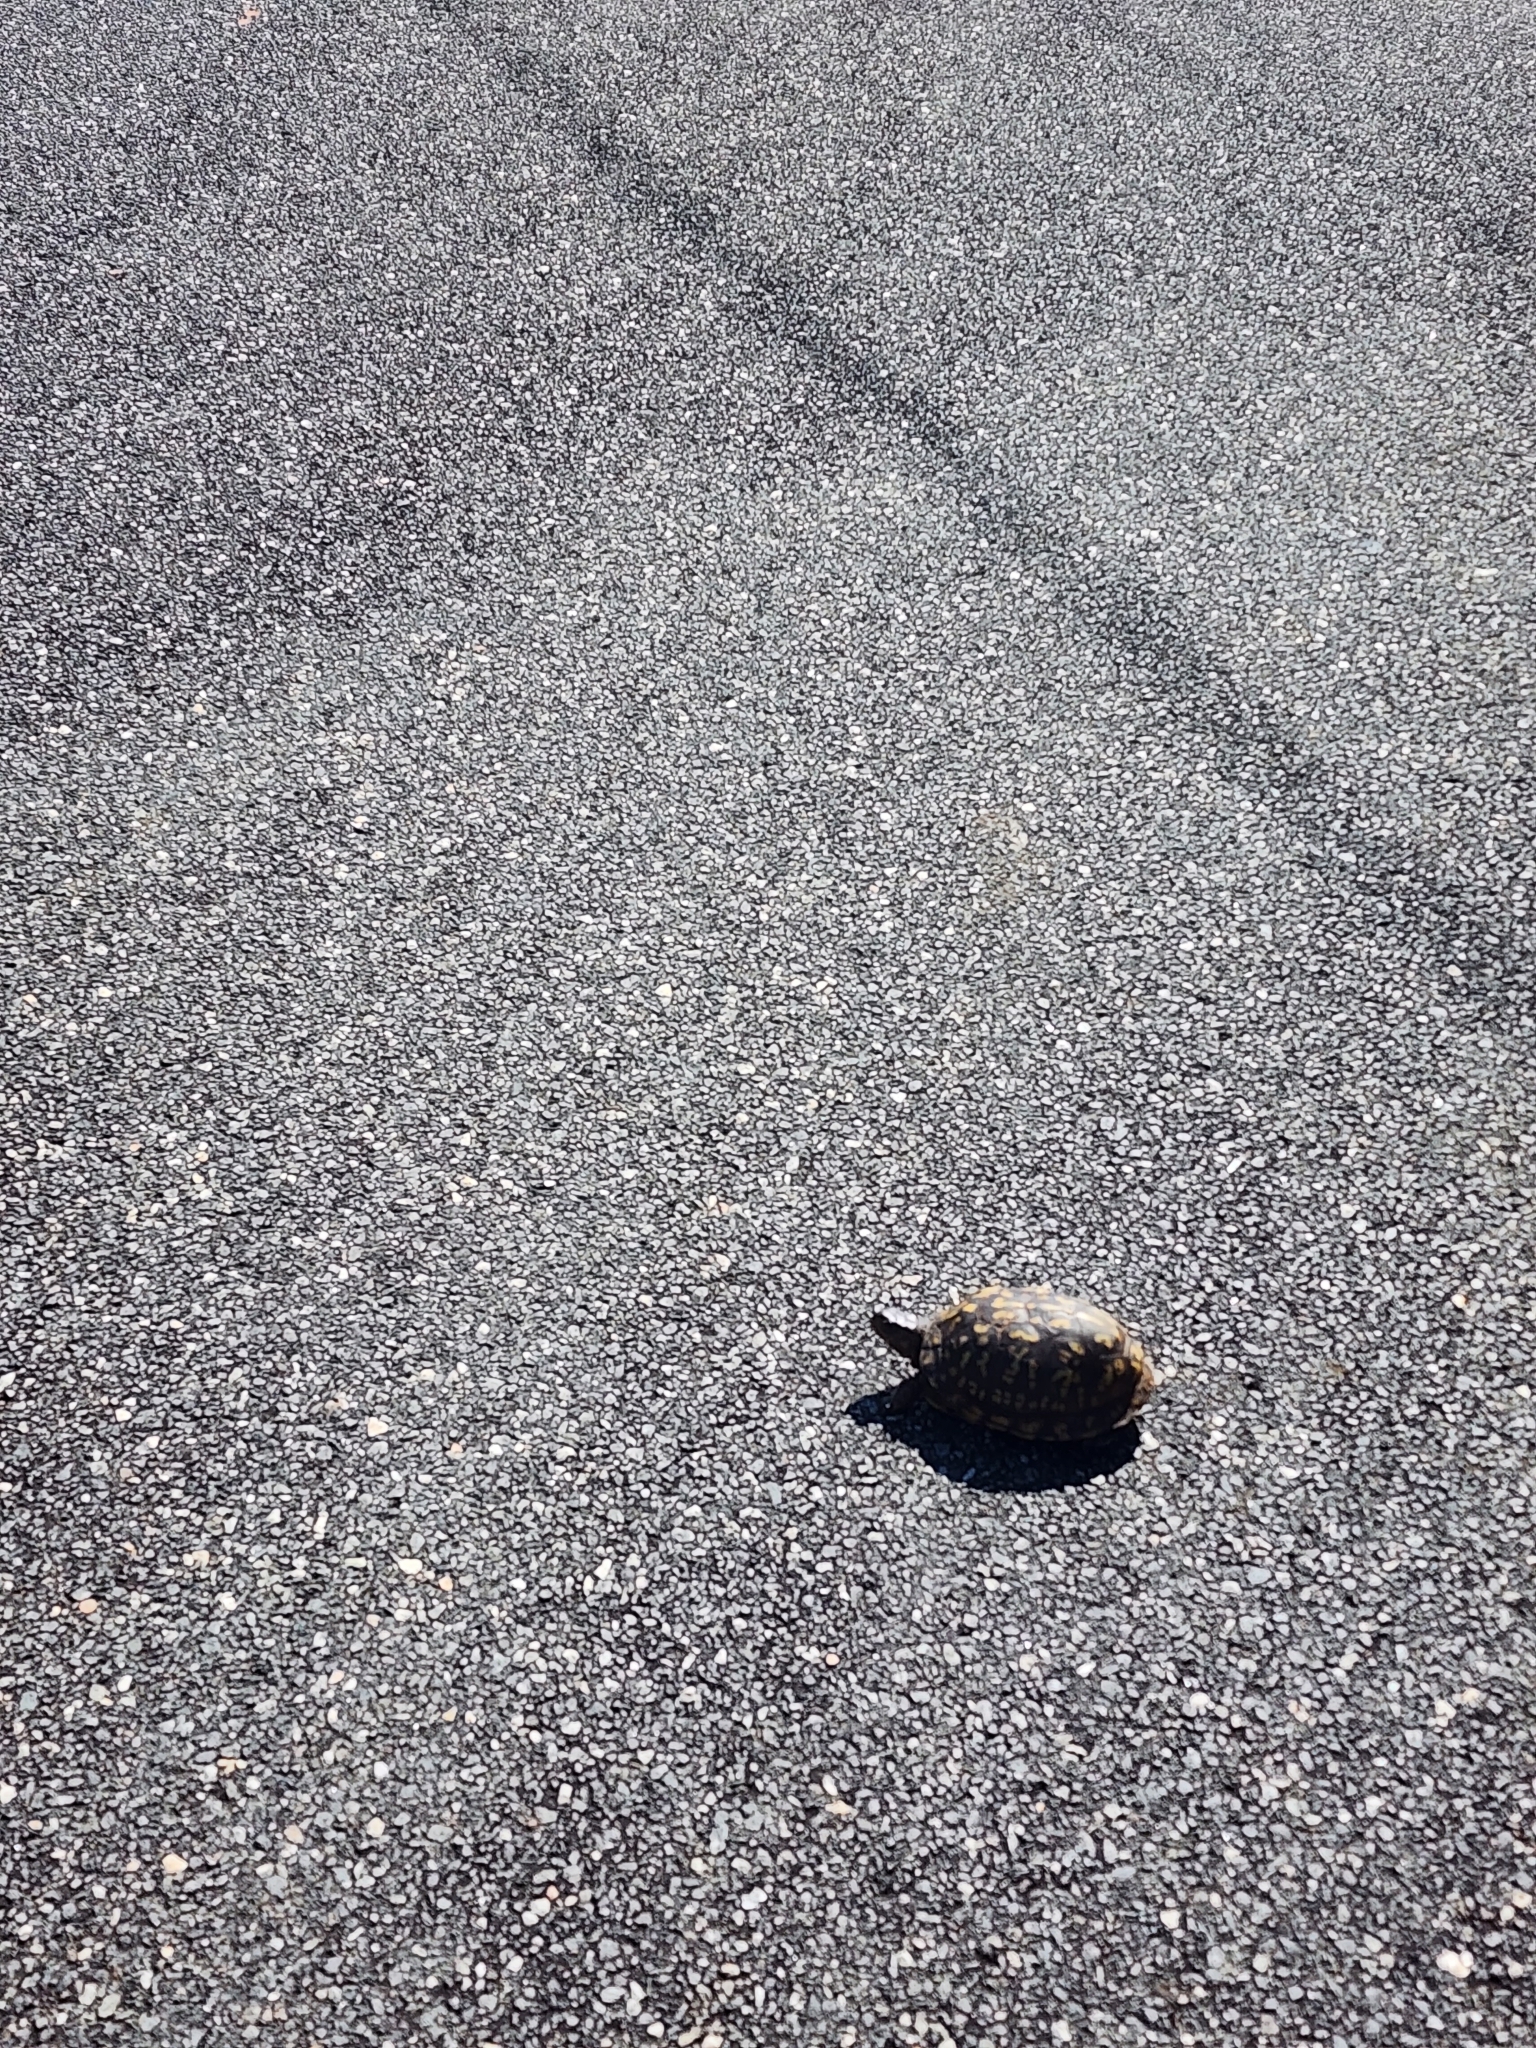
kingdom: Animalia
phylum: Chordata
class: Testudines
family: Emydidae
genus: Terrapene
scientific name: Terrapene carolina
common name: Common box turtle
